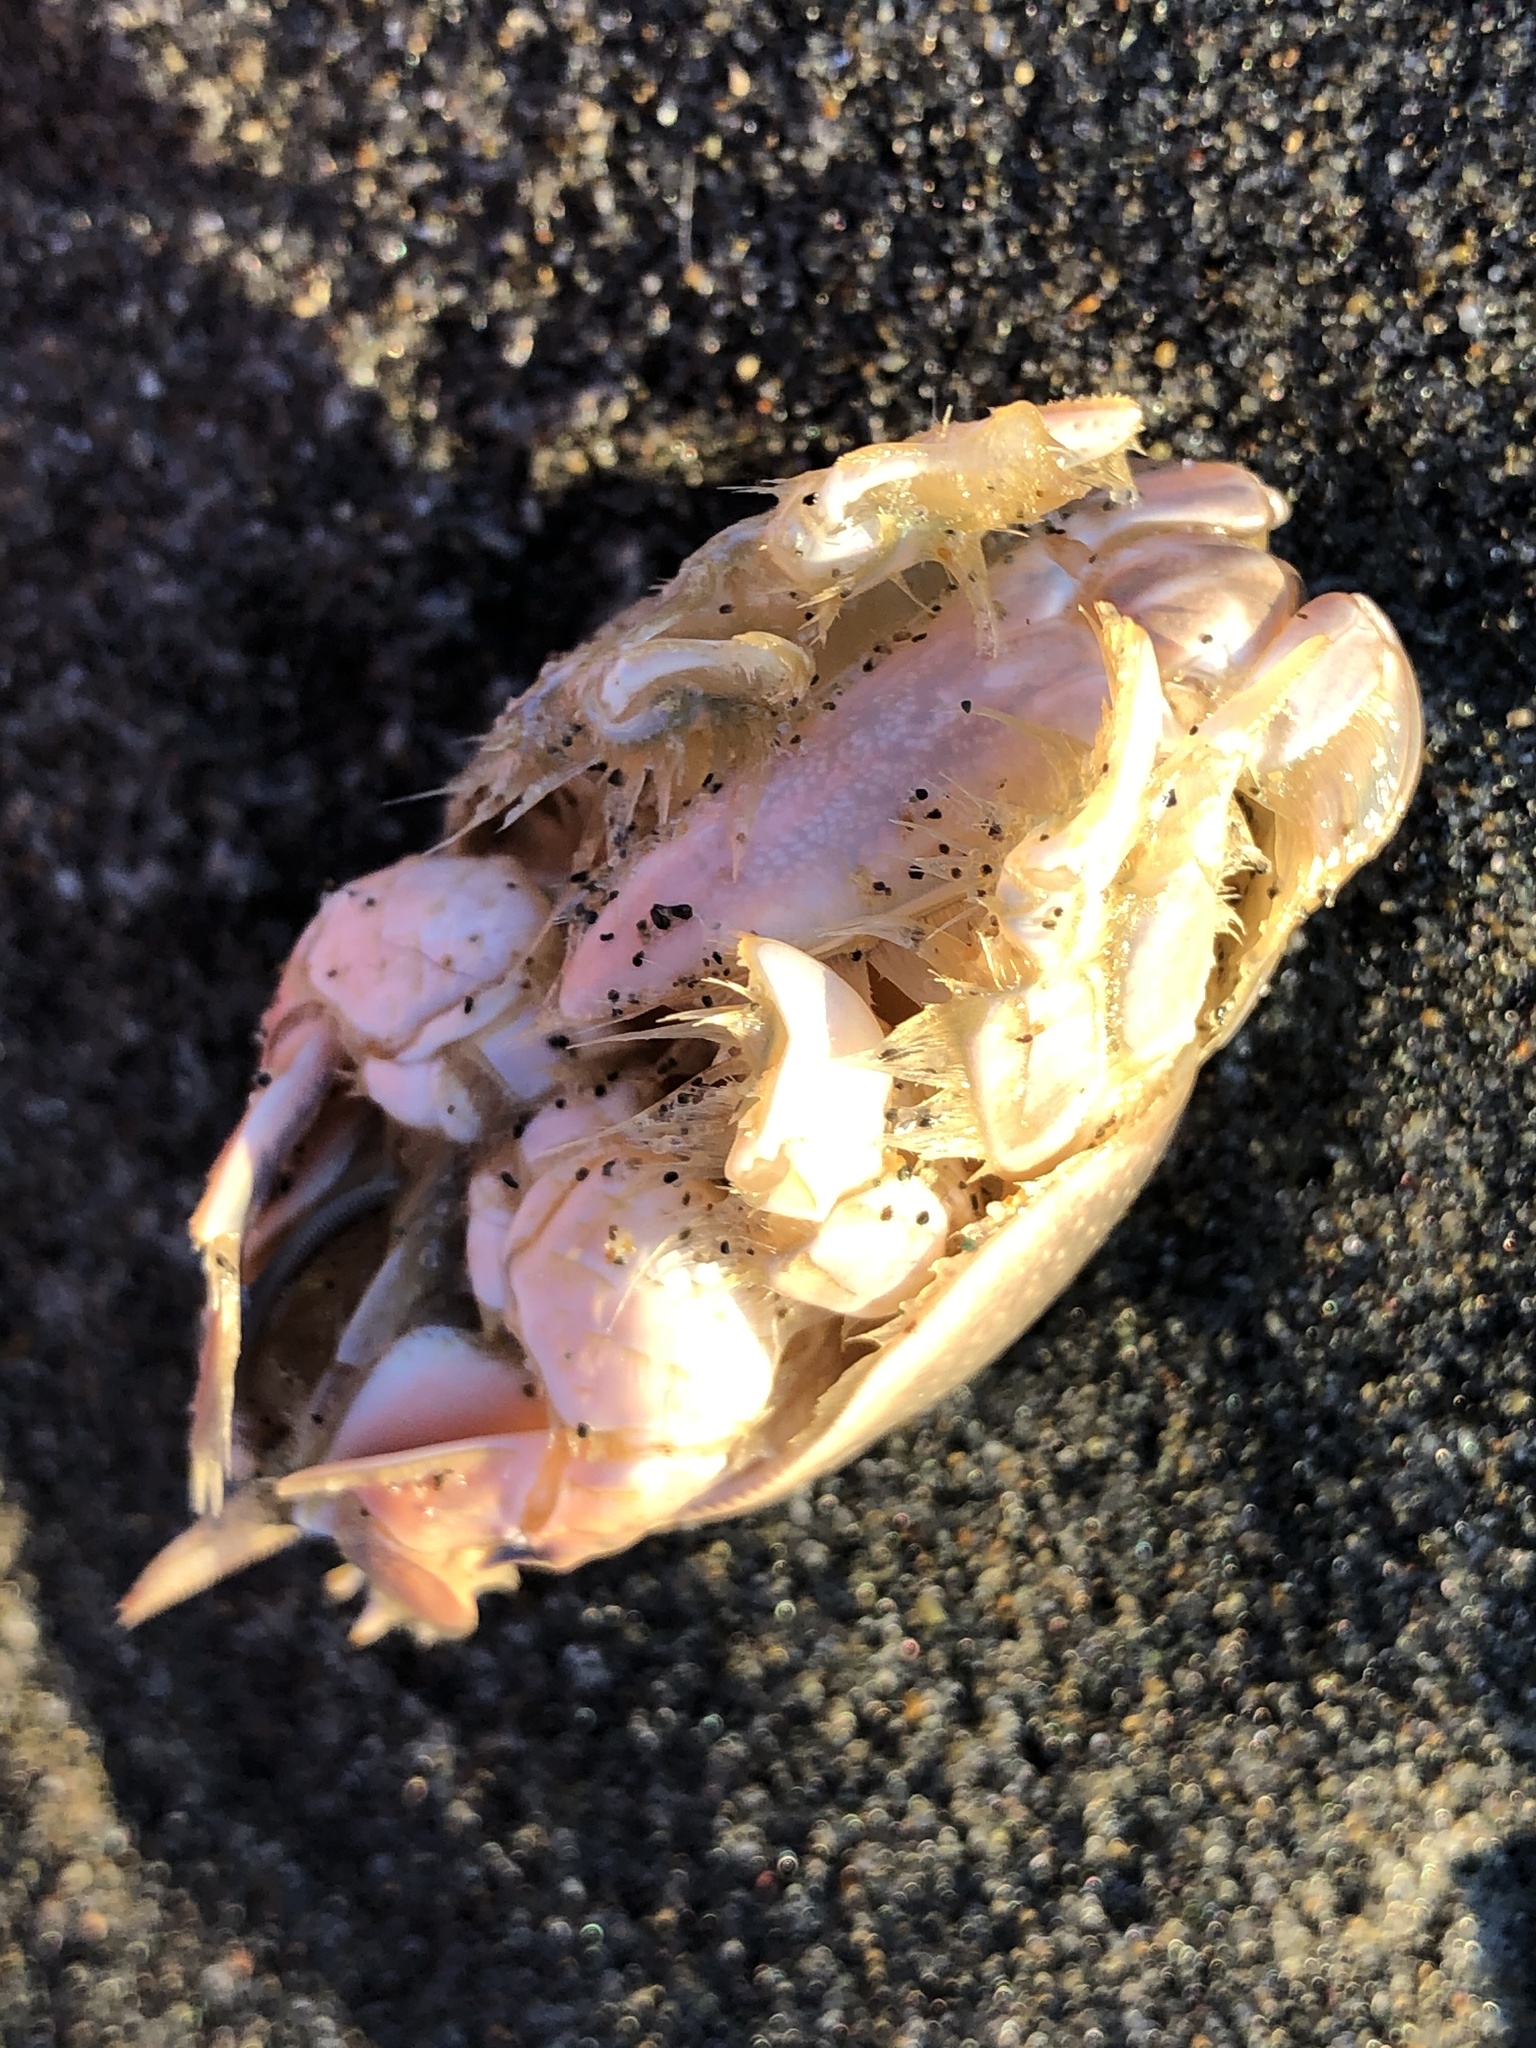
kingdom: Animalia
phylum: Arthropoda
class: Malacostraca
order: Decapoda
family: Hippidae
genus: Emerita
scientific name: Emerita analoga
